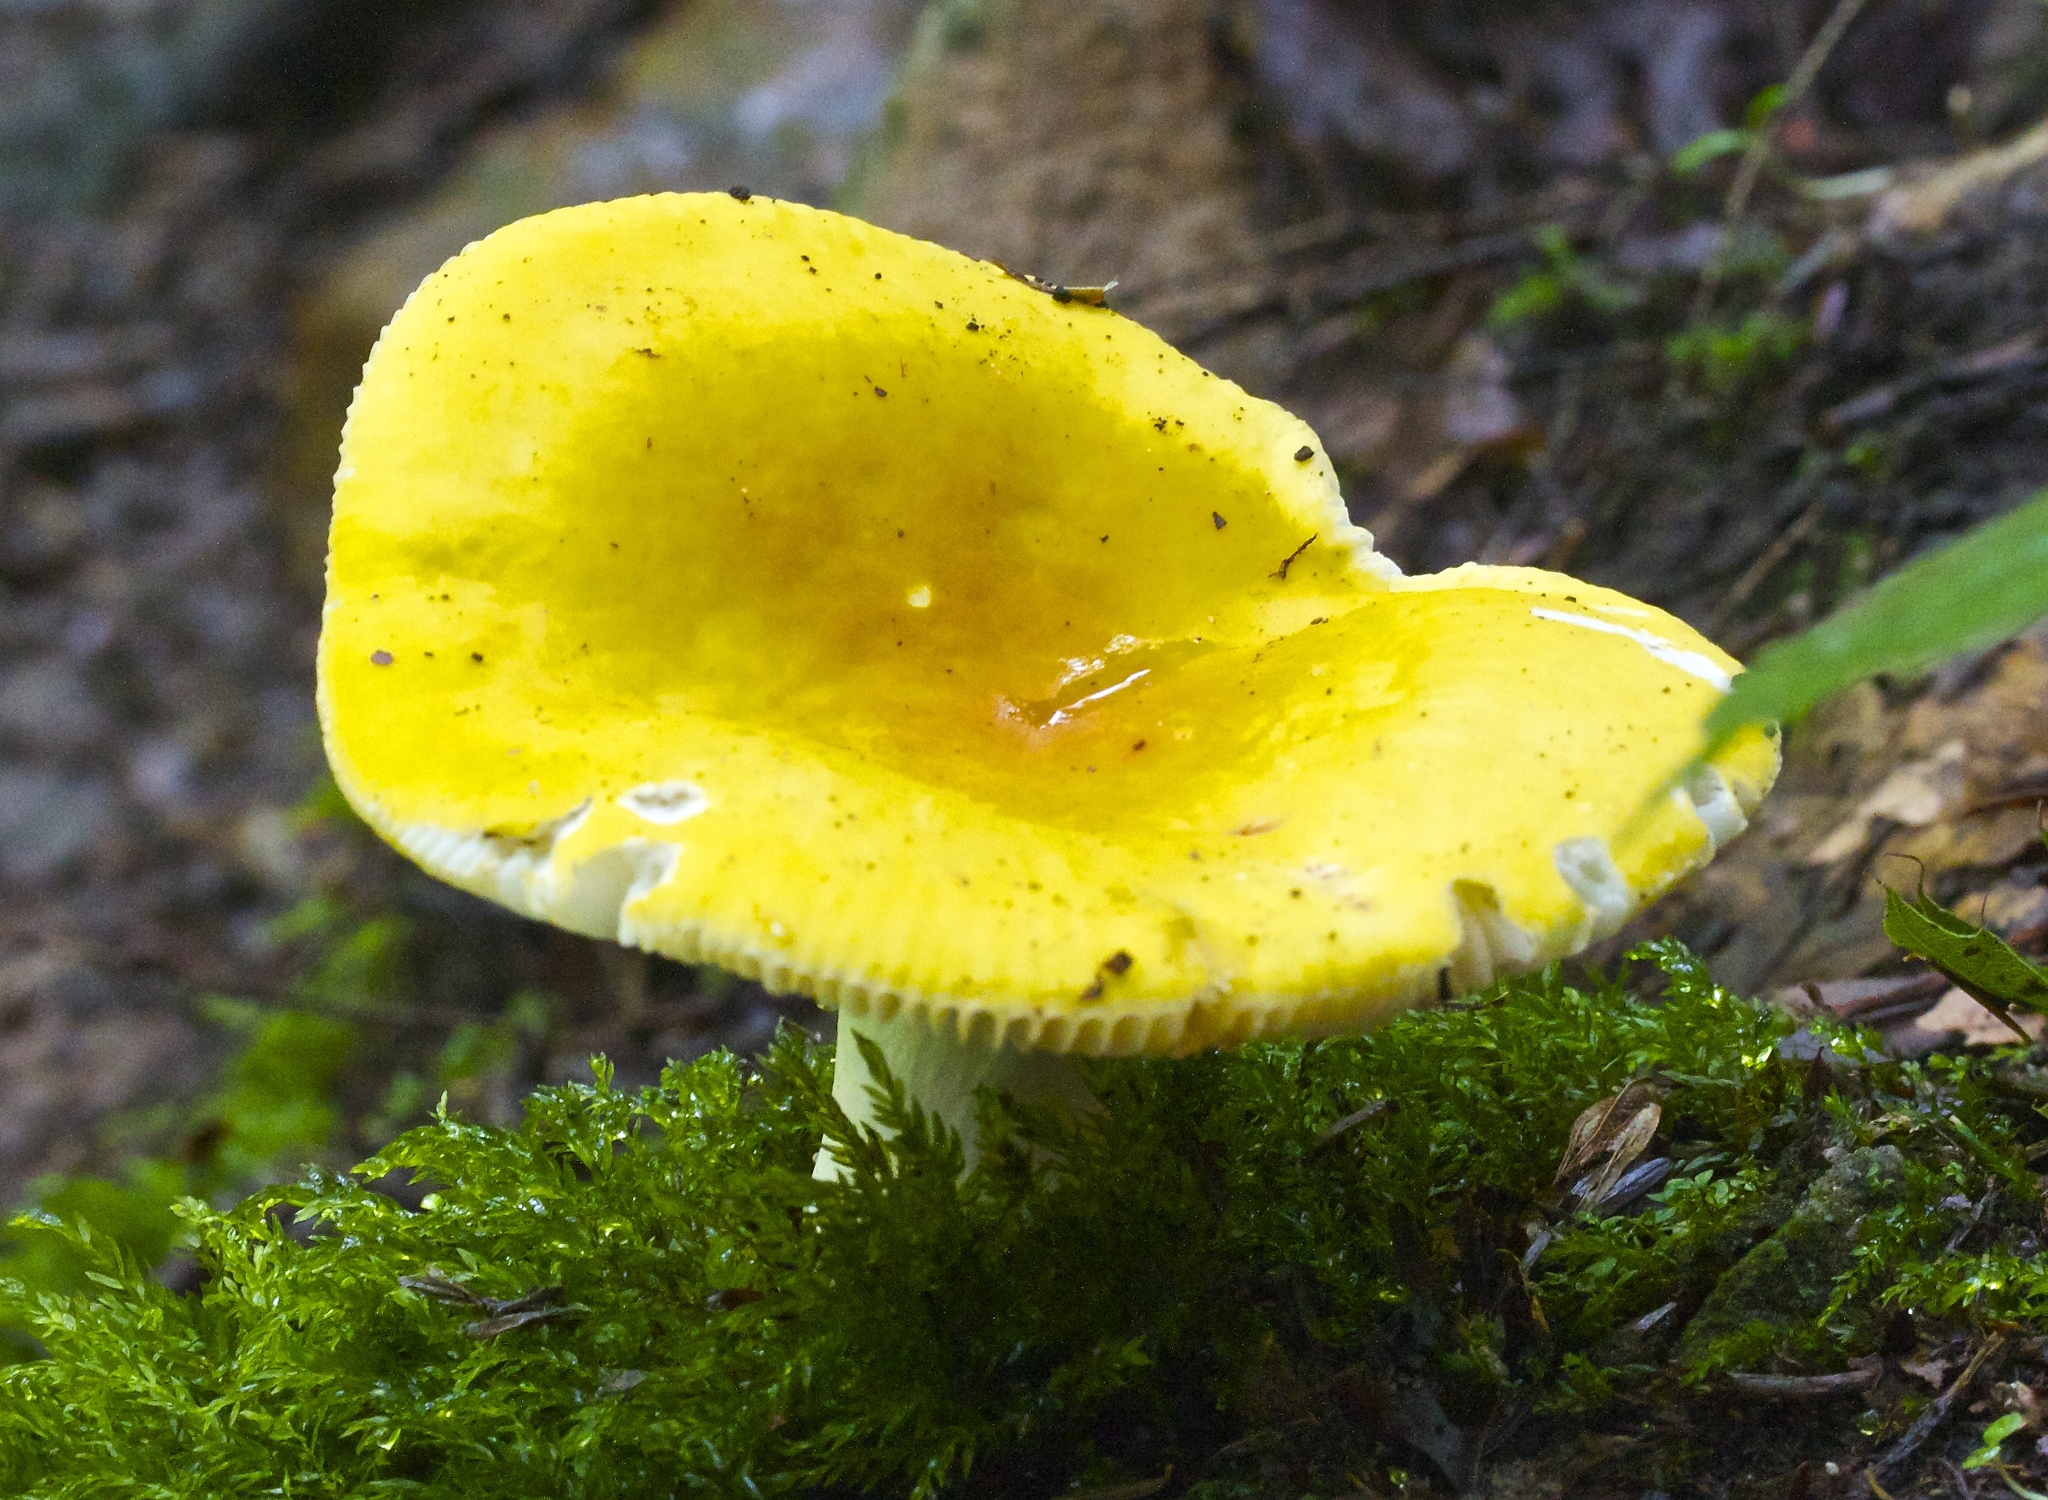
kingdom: Fungi
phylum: Basidiomycota
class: Agaricomycetes
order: Russulales
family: Russulaceae
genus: Russula
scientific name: Russula claroflava
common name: The yellow swamp brittlegill
